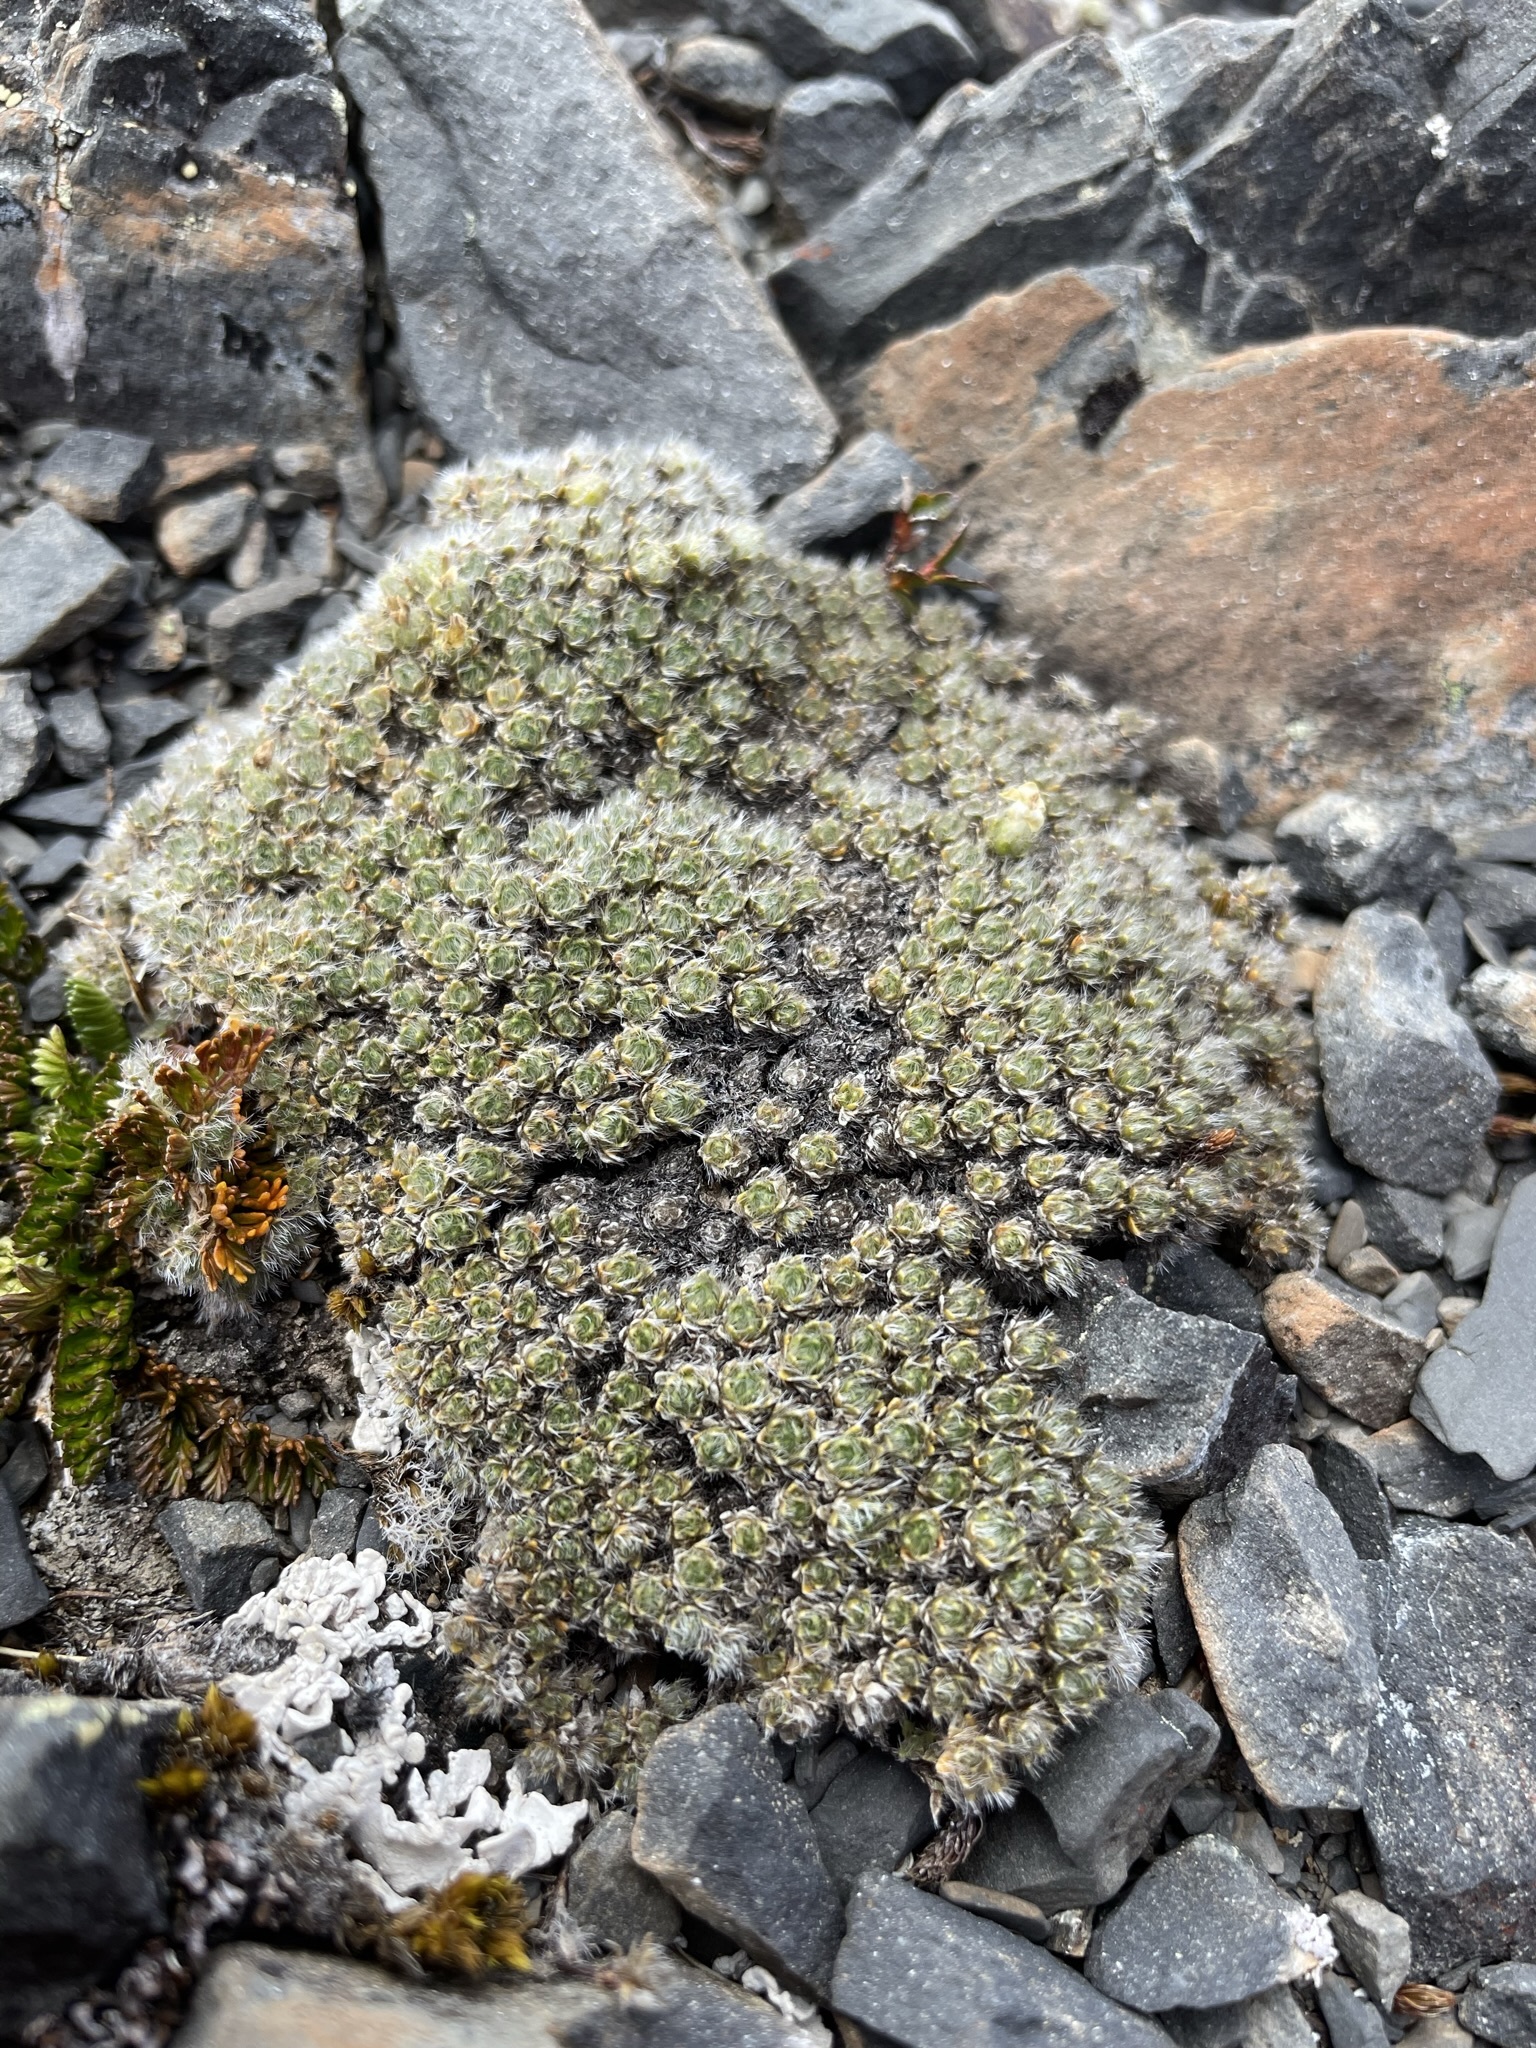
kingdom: Plantae
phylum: Tracheophyta
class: Magnoliopsida
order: Lamiales
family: Plantaginaceae
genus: Veronica
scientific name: Veronica pulvinaris
